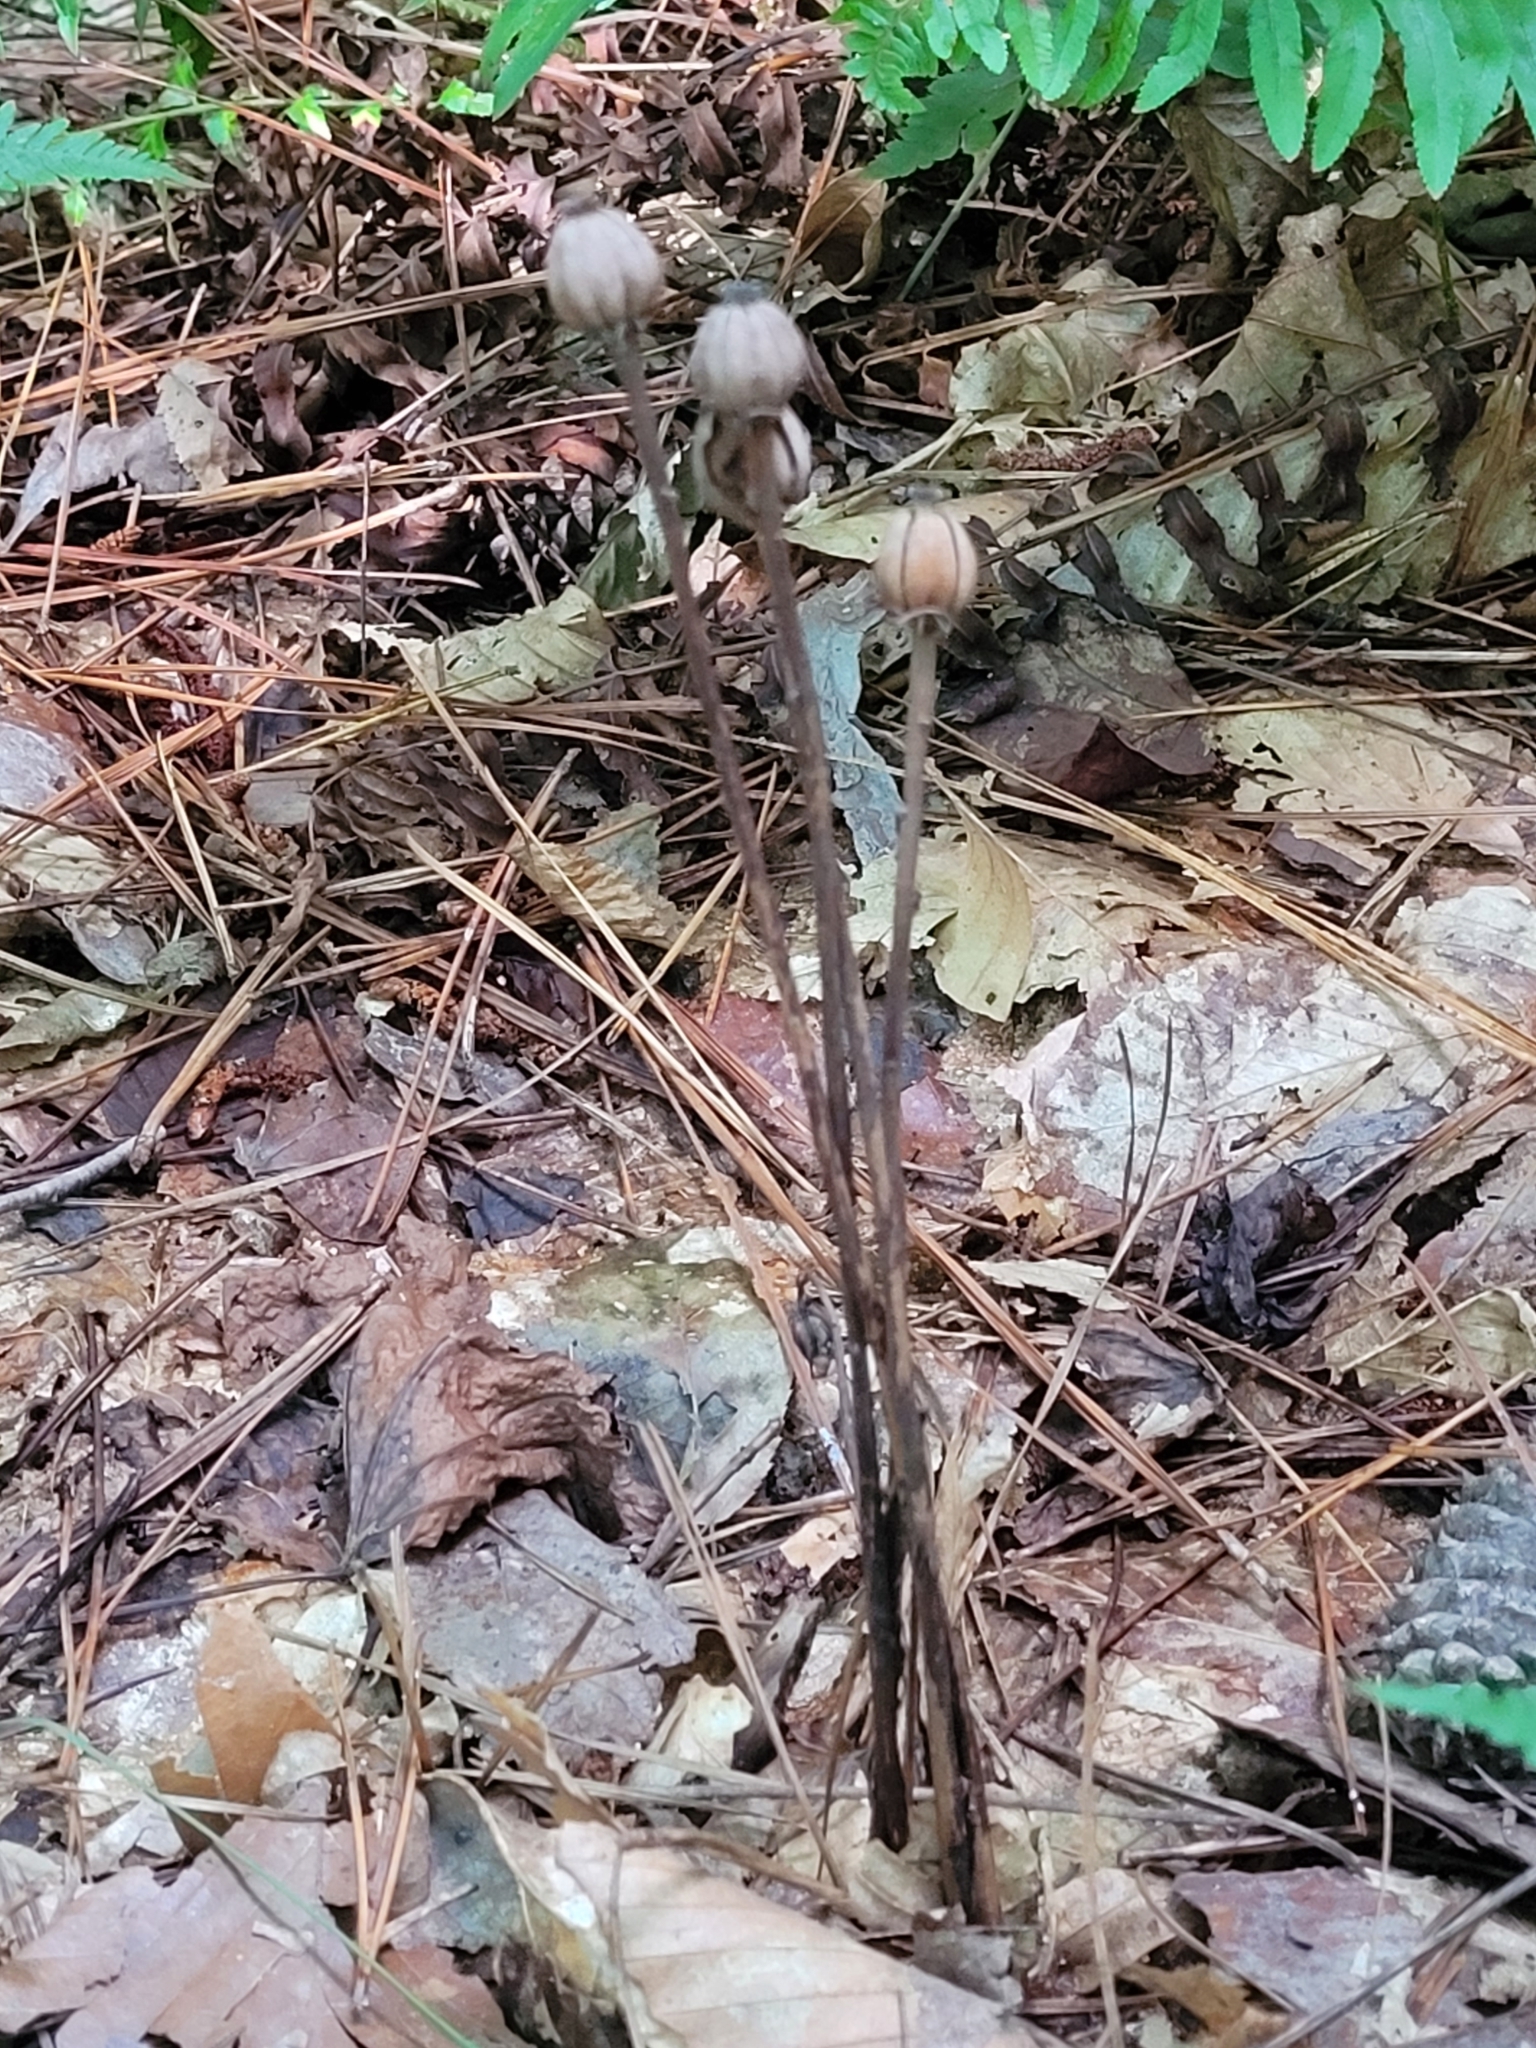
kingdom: Plantae
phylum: Tracheophyta
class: Magnoliopsida
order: Ericales
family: Ericaceae
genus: Monotropa
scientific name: Monotropa uniflora
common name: Convulsion root
